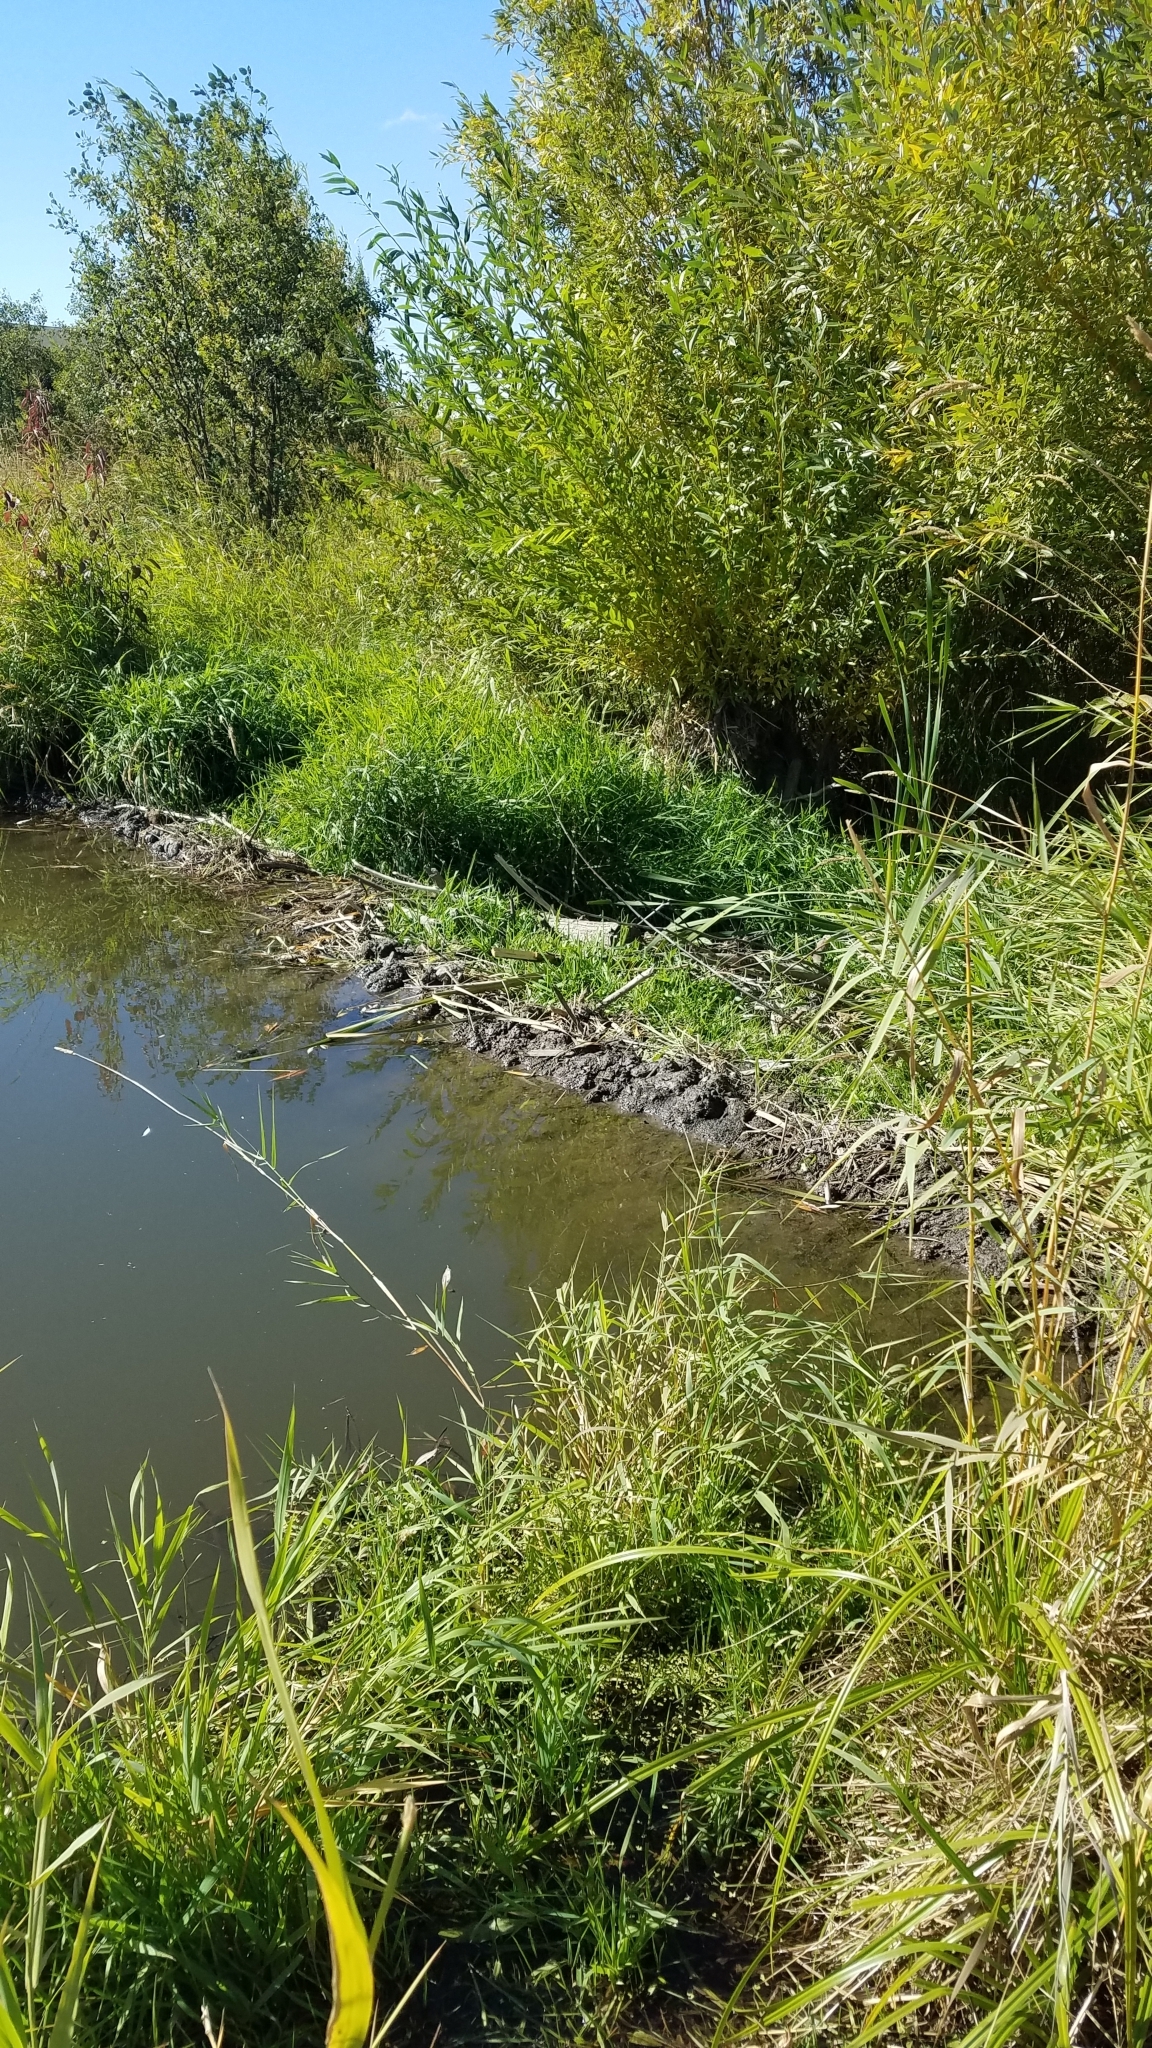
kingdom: Animalia
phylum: Chordata
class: Mammalia
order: Rodentia
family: Castoridae
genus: Castor
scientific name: Castor canadensis
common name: American beaver
